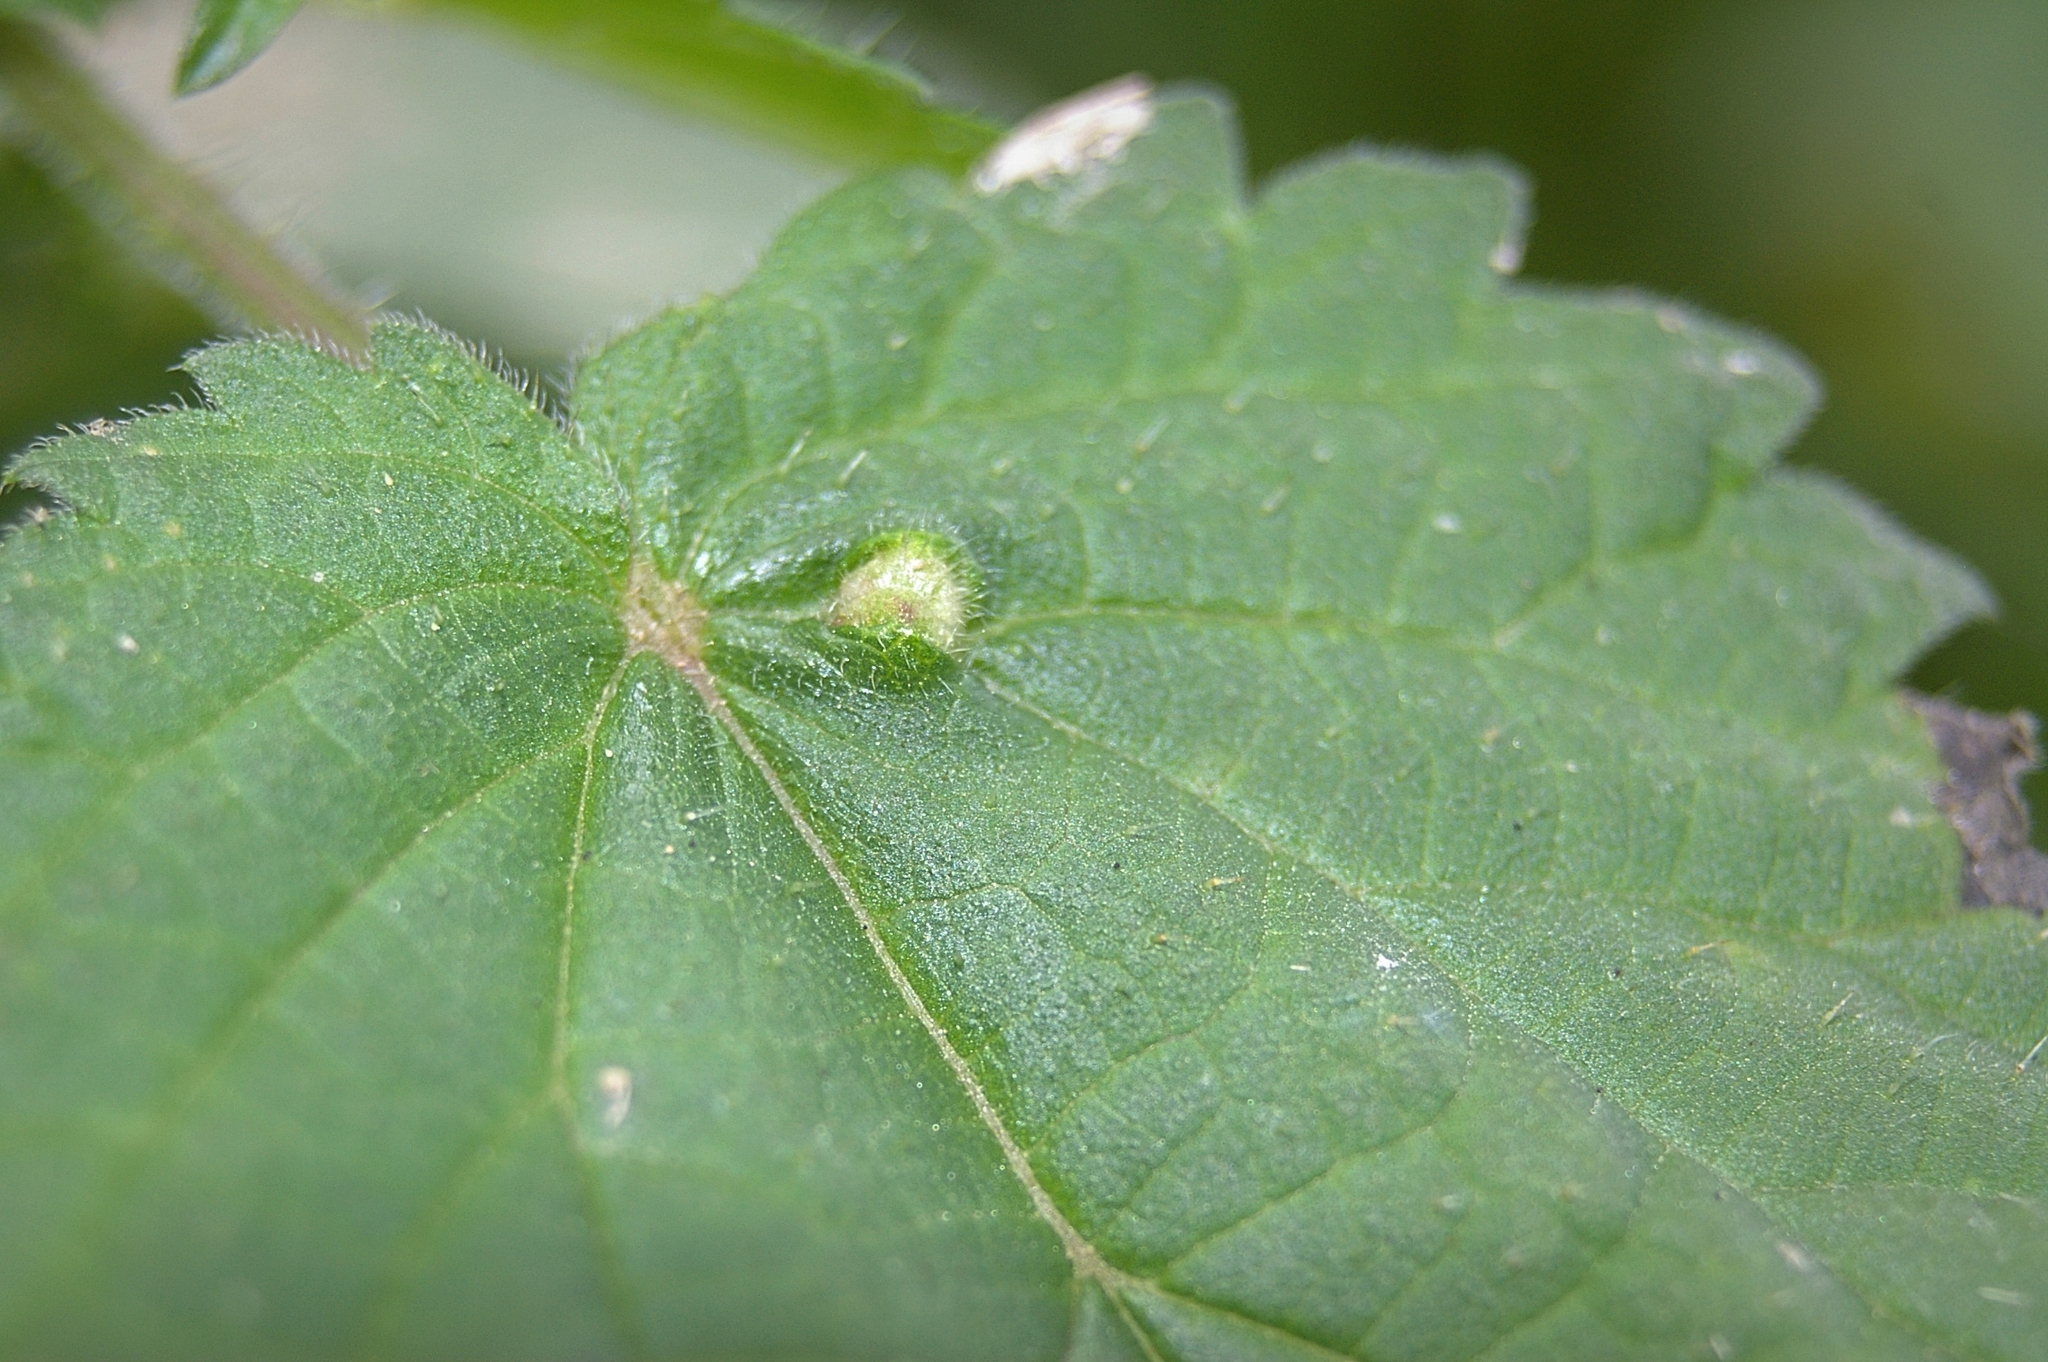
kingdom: Animalia
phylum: Arthropoda
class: Insecta
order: Diptera
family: Cecidomyiidae
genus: Dasineura
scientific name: Dasineura urticae
